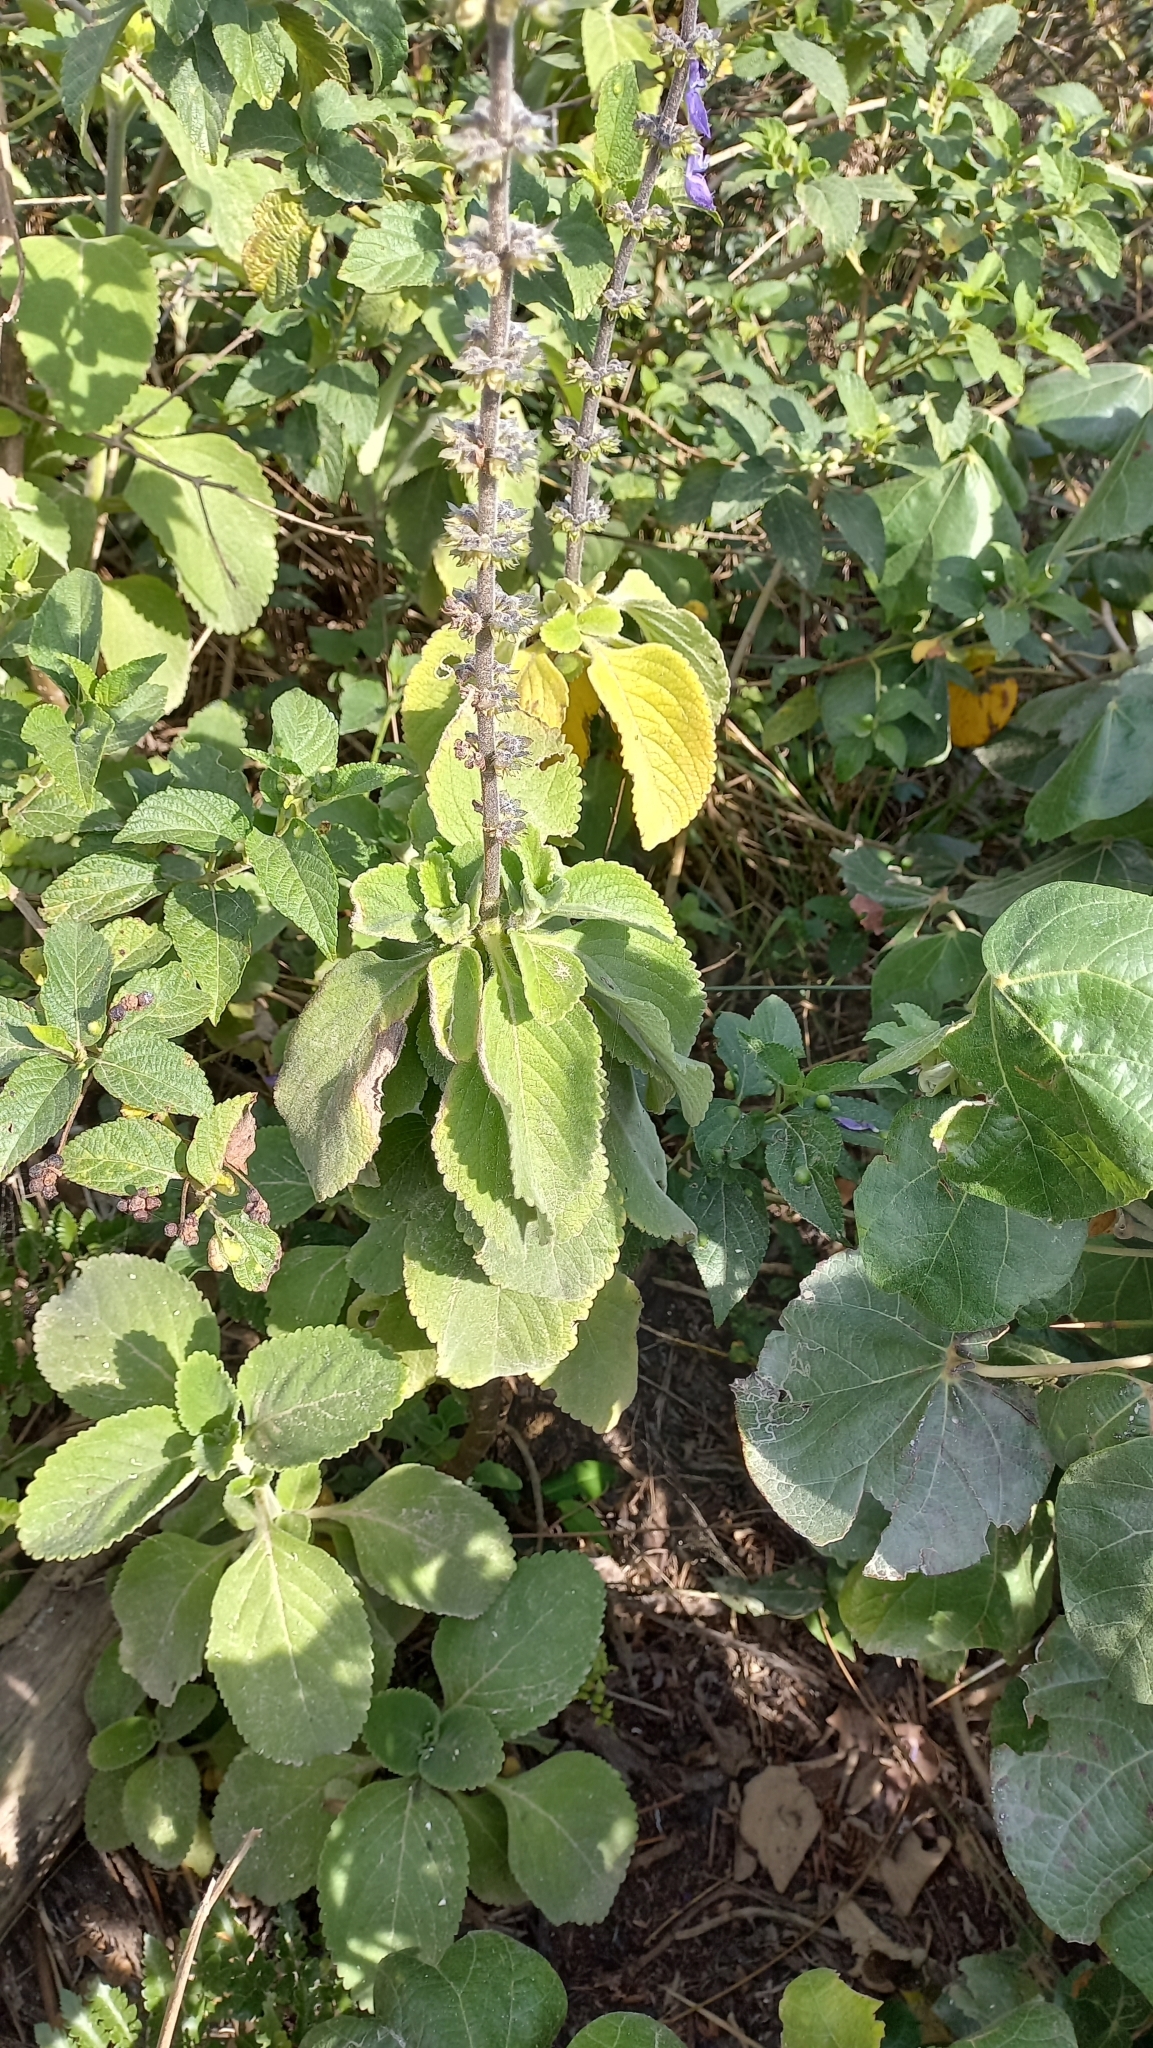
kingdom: Plantae
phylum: Tracheophyta
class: Magnoliopsida
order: Lamiales
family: Lamiaceae
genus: Coleus
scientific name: Coleus barbatus
